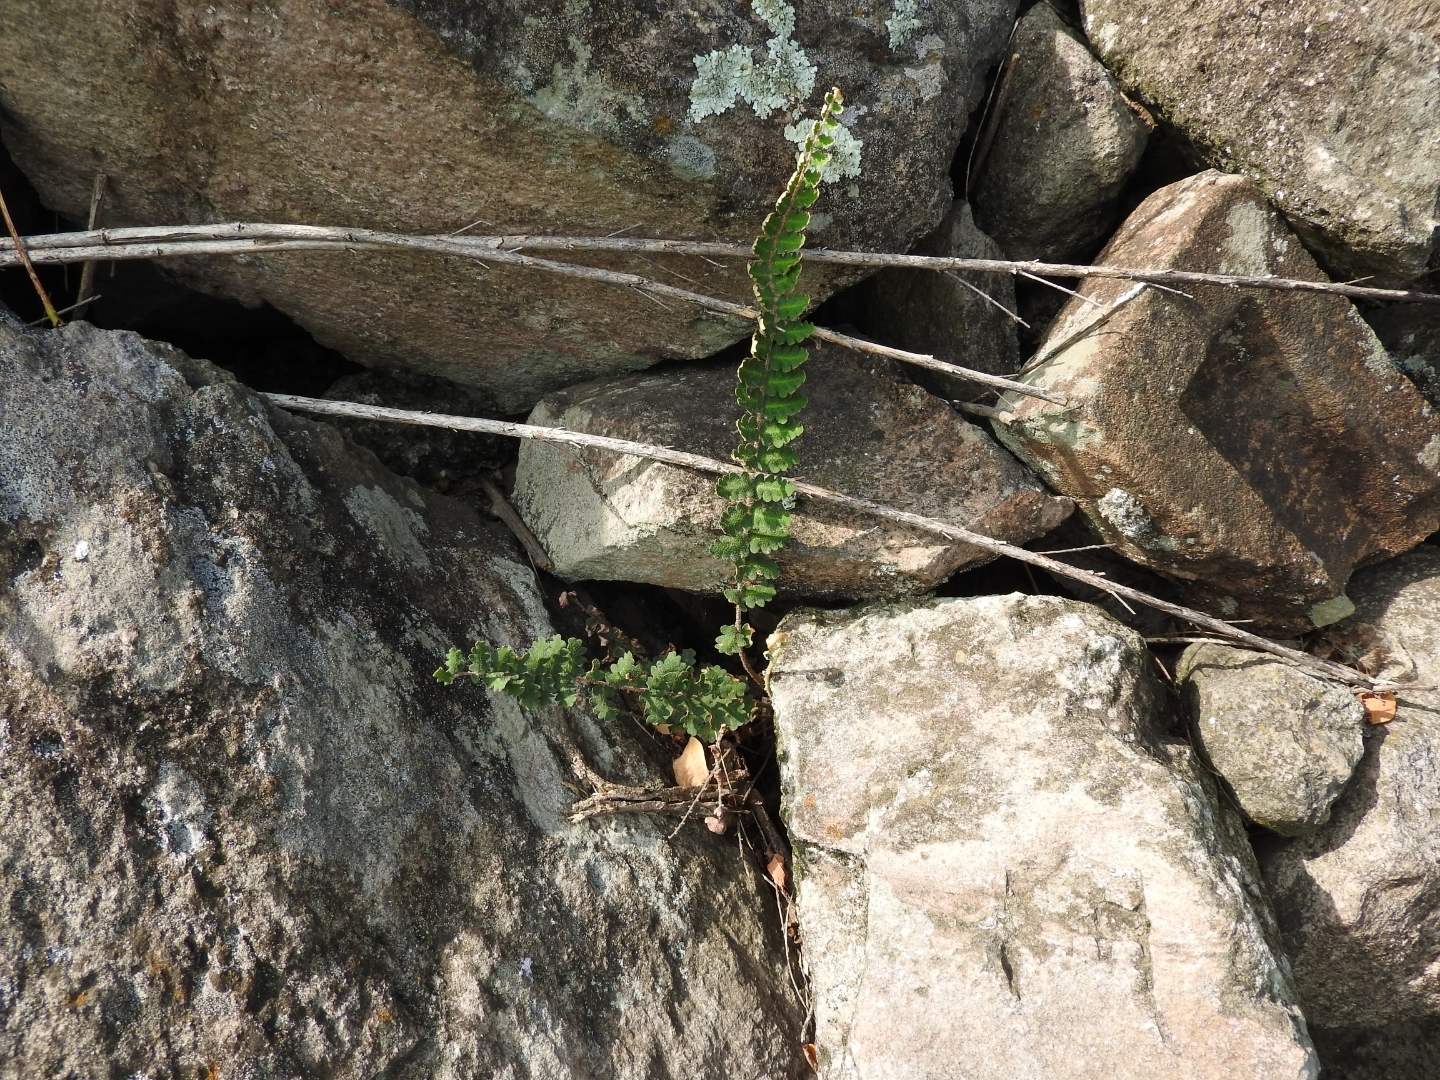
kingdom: Plantae
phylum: Tracheophyta
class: Polypodiopsida
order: Polypodiales
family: Pteridaceae
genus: Astrolepis
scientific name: Astrolepis sinuata
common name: Wavy scaly cloakfern
